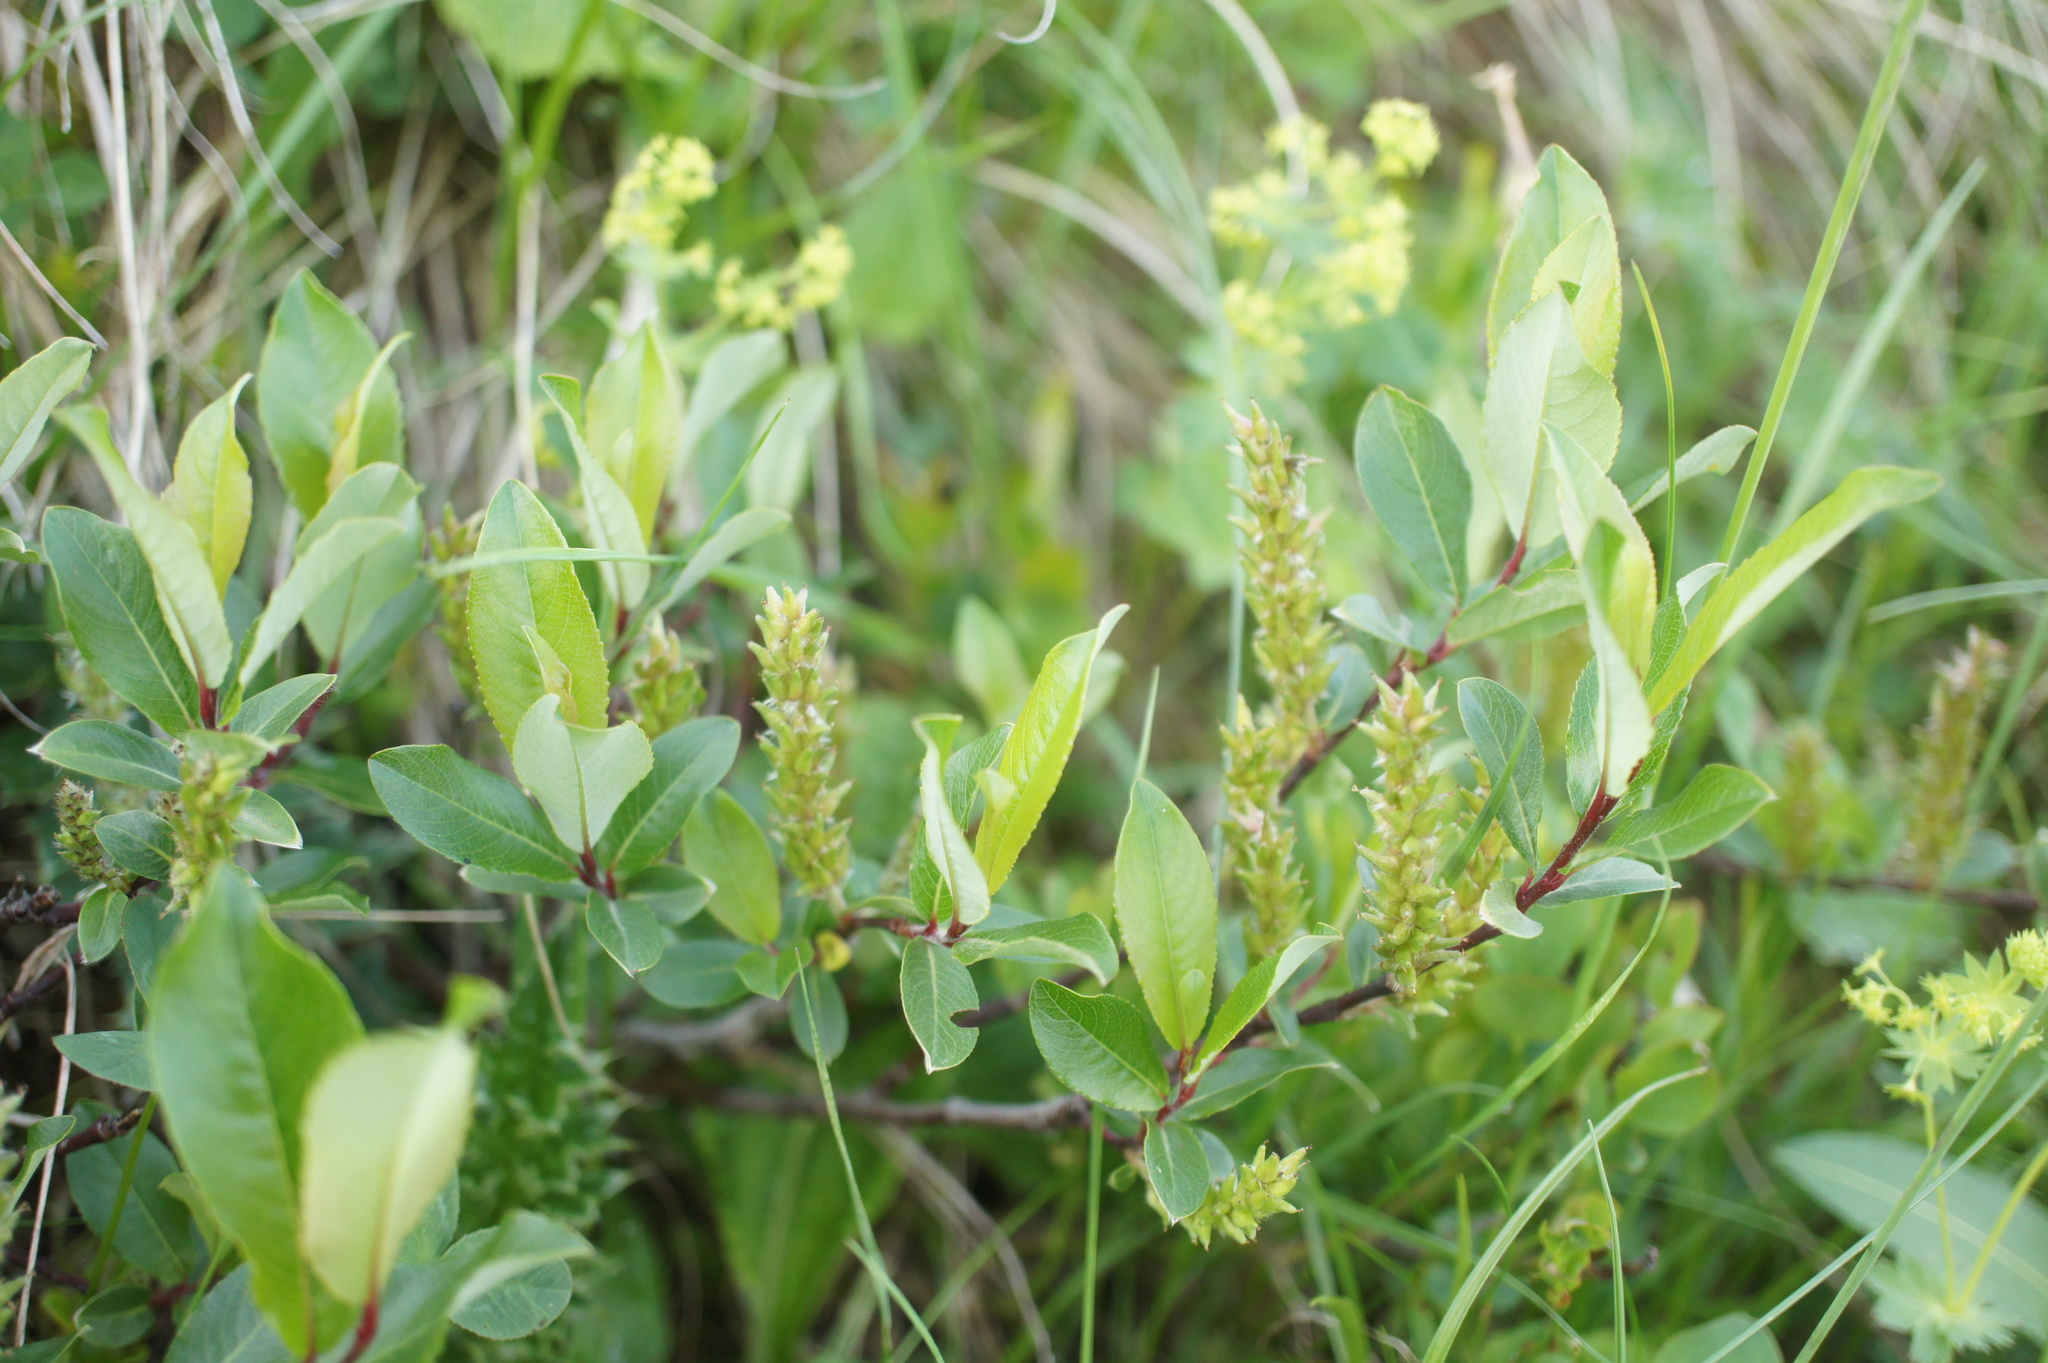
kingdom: Plantae
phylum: Tracheophyta
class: Magnoliopsida
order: Malpighiales
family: Salicaceae
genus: Salix
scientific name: Salix kazbekensis
